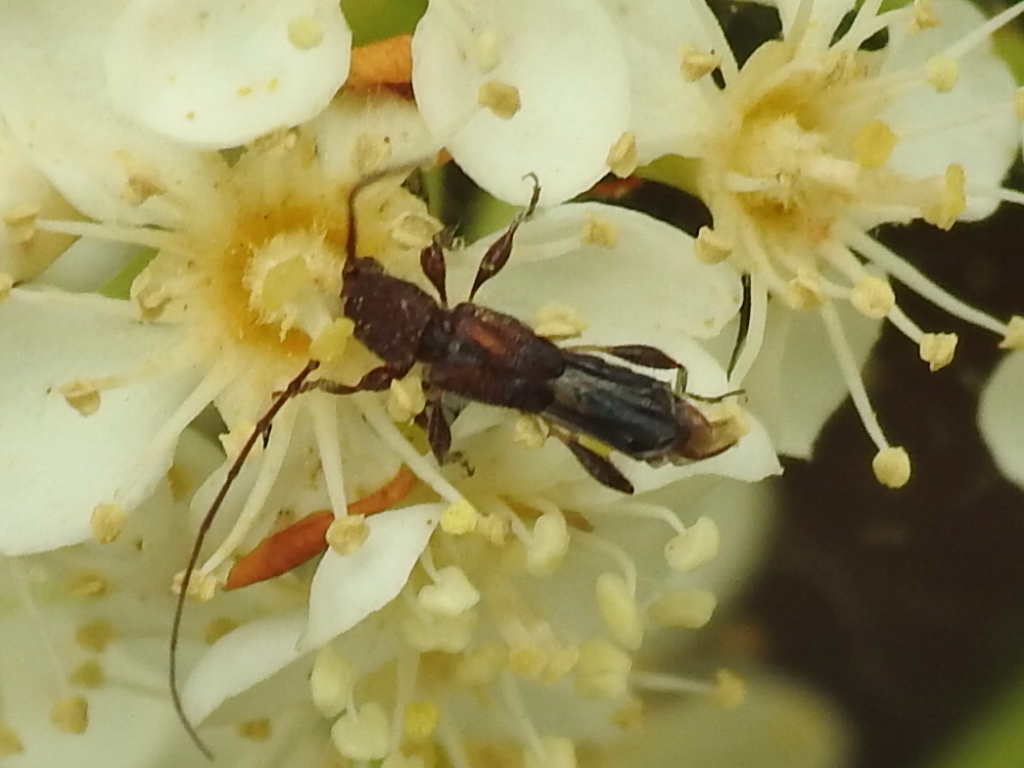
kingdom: Animalia
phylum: Arthropoda
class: Insecta
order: Coleoptera
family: Cerambycidae
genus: Molorchus
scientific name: Molorchus bimaculatus
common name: Bimaculate longhorn beetle
